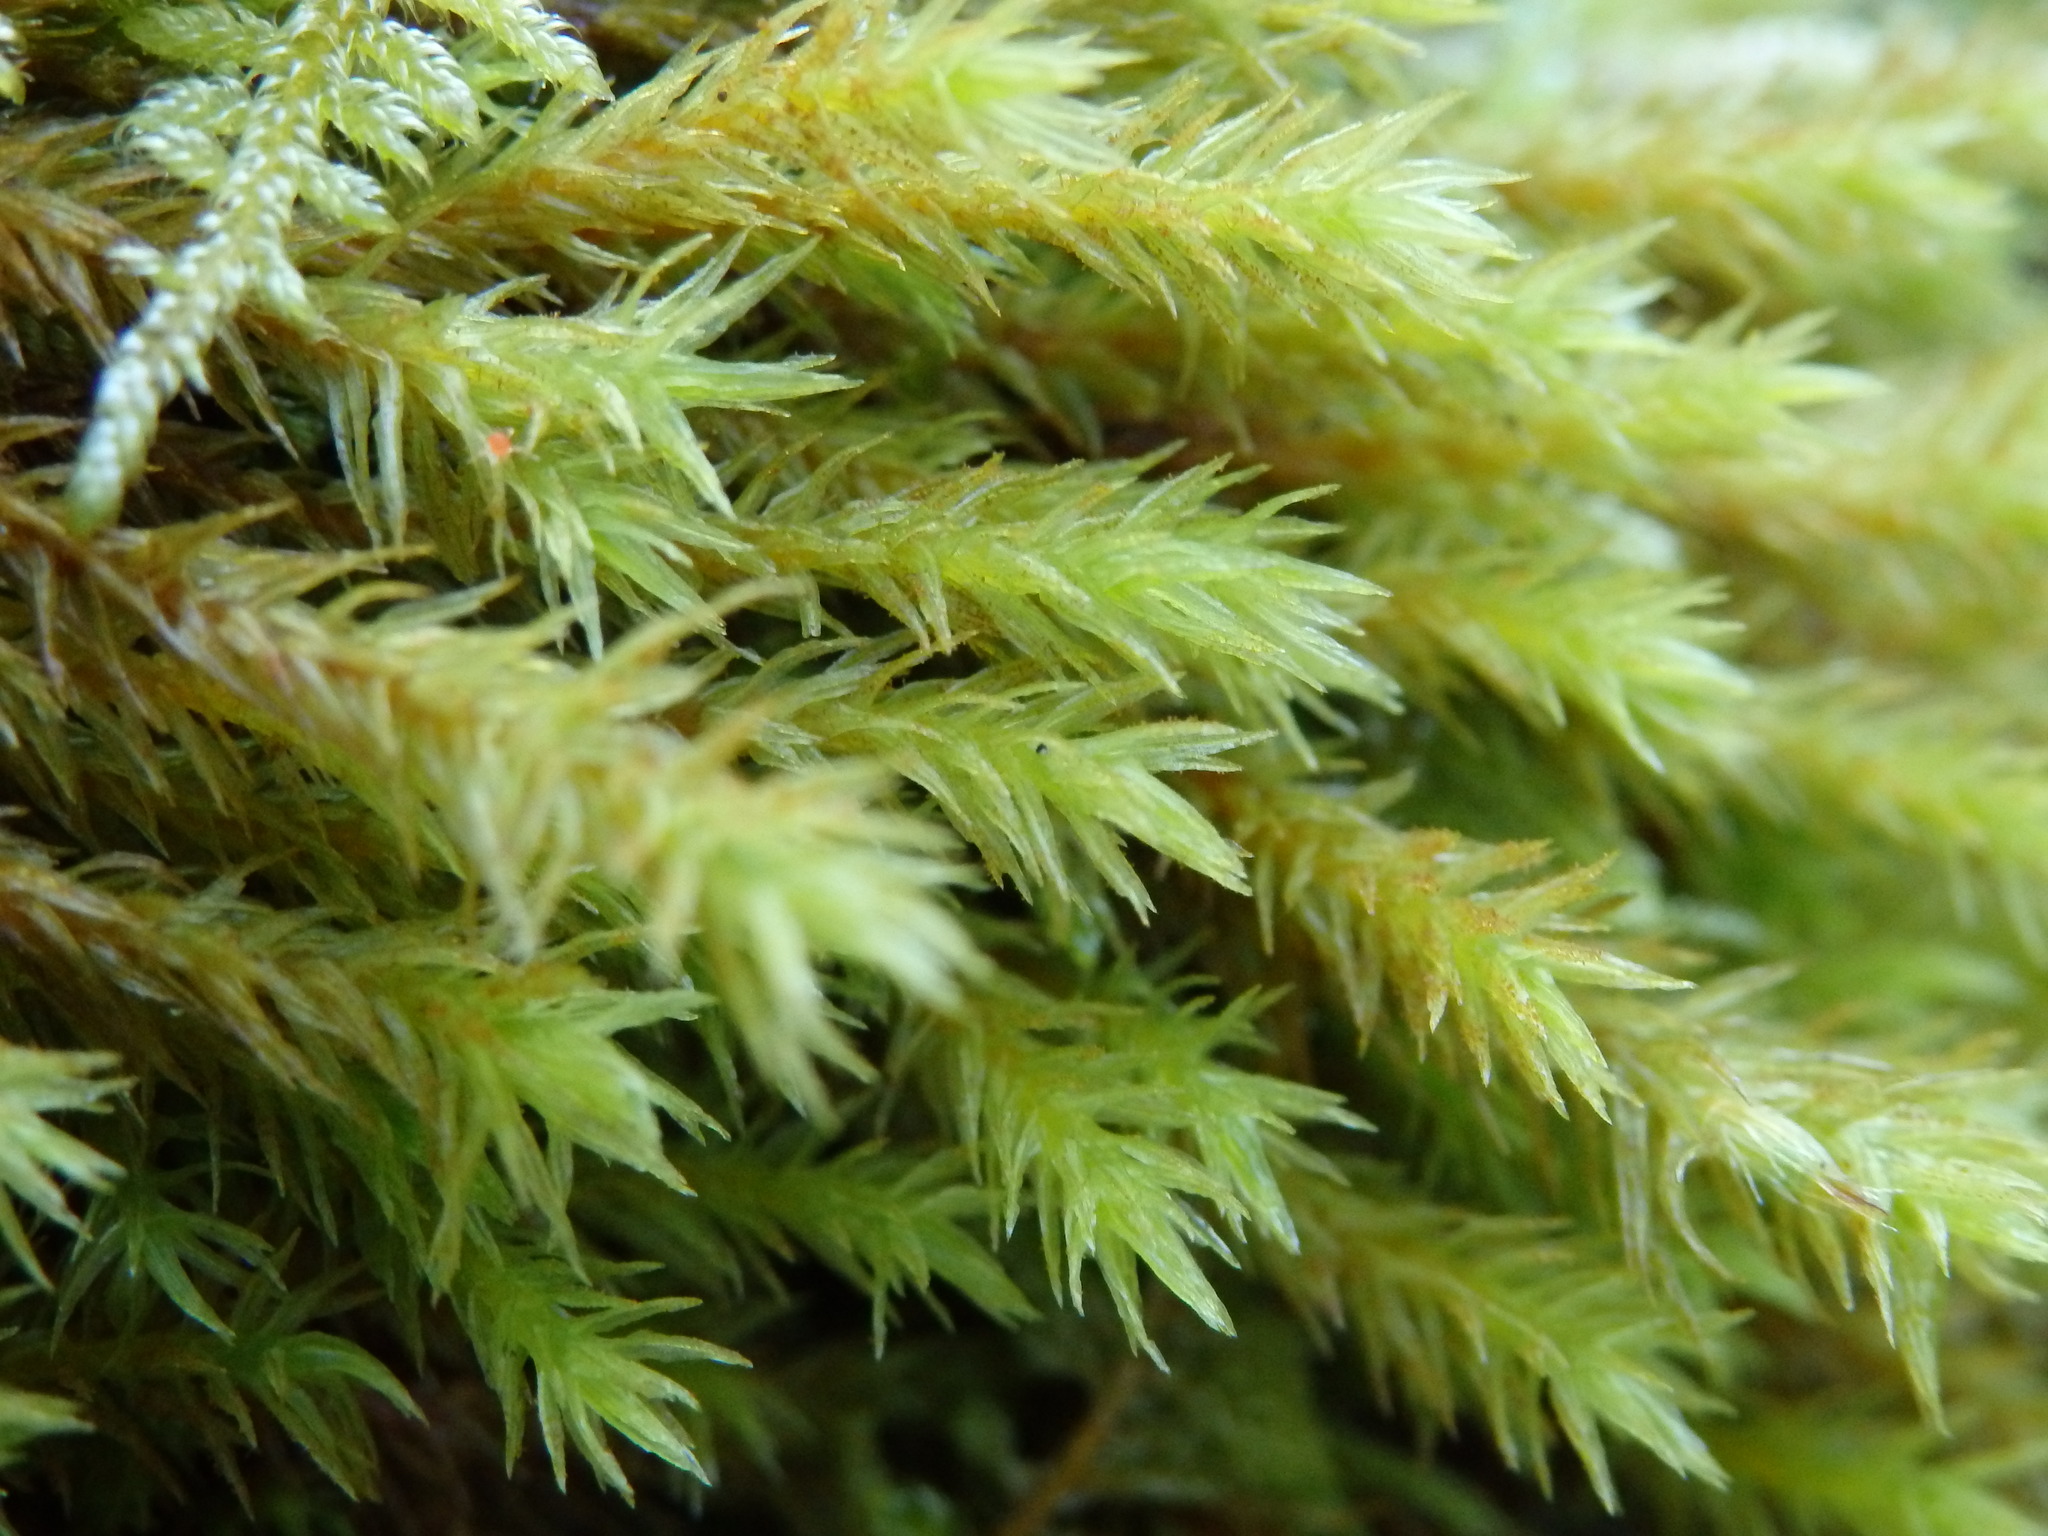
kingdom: Plantae
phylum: Bryophyta
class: Bryopsida
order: Orthotrichales
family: Orthotrichaceae
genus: Pulvigera
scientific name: Pulvigera lyellii
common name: Lyell's bristle-moss
